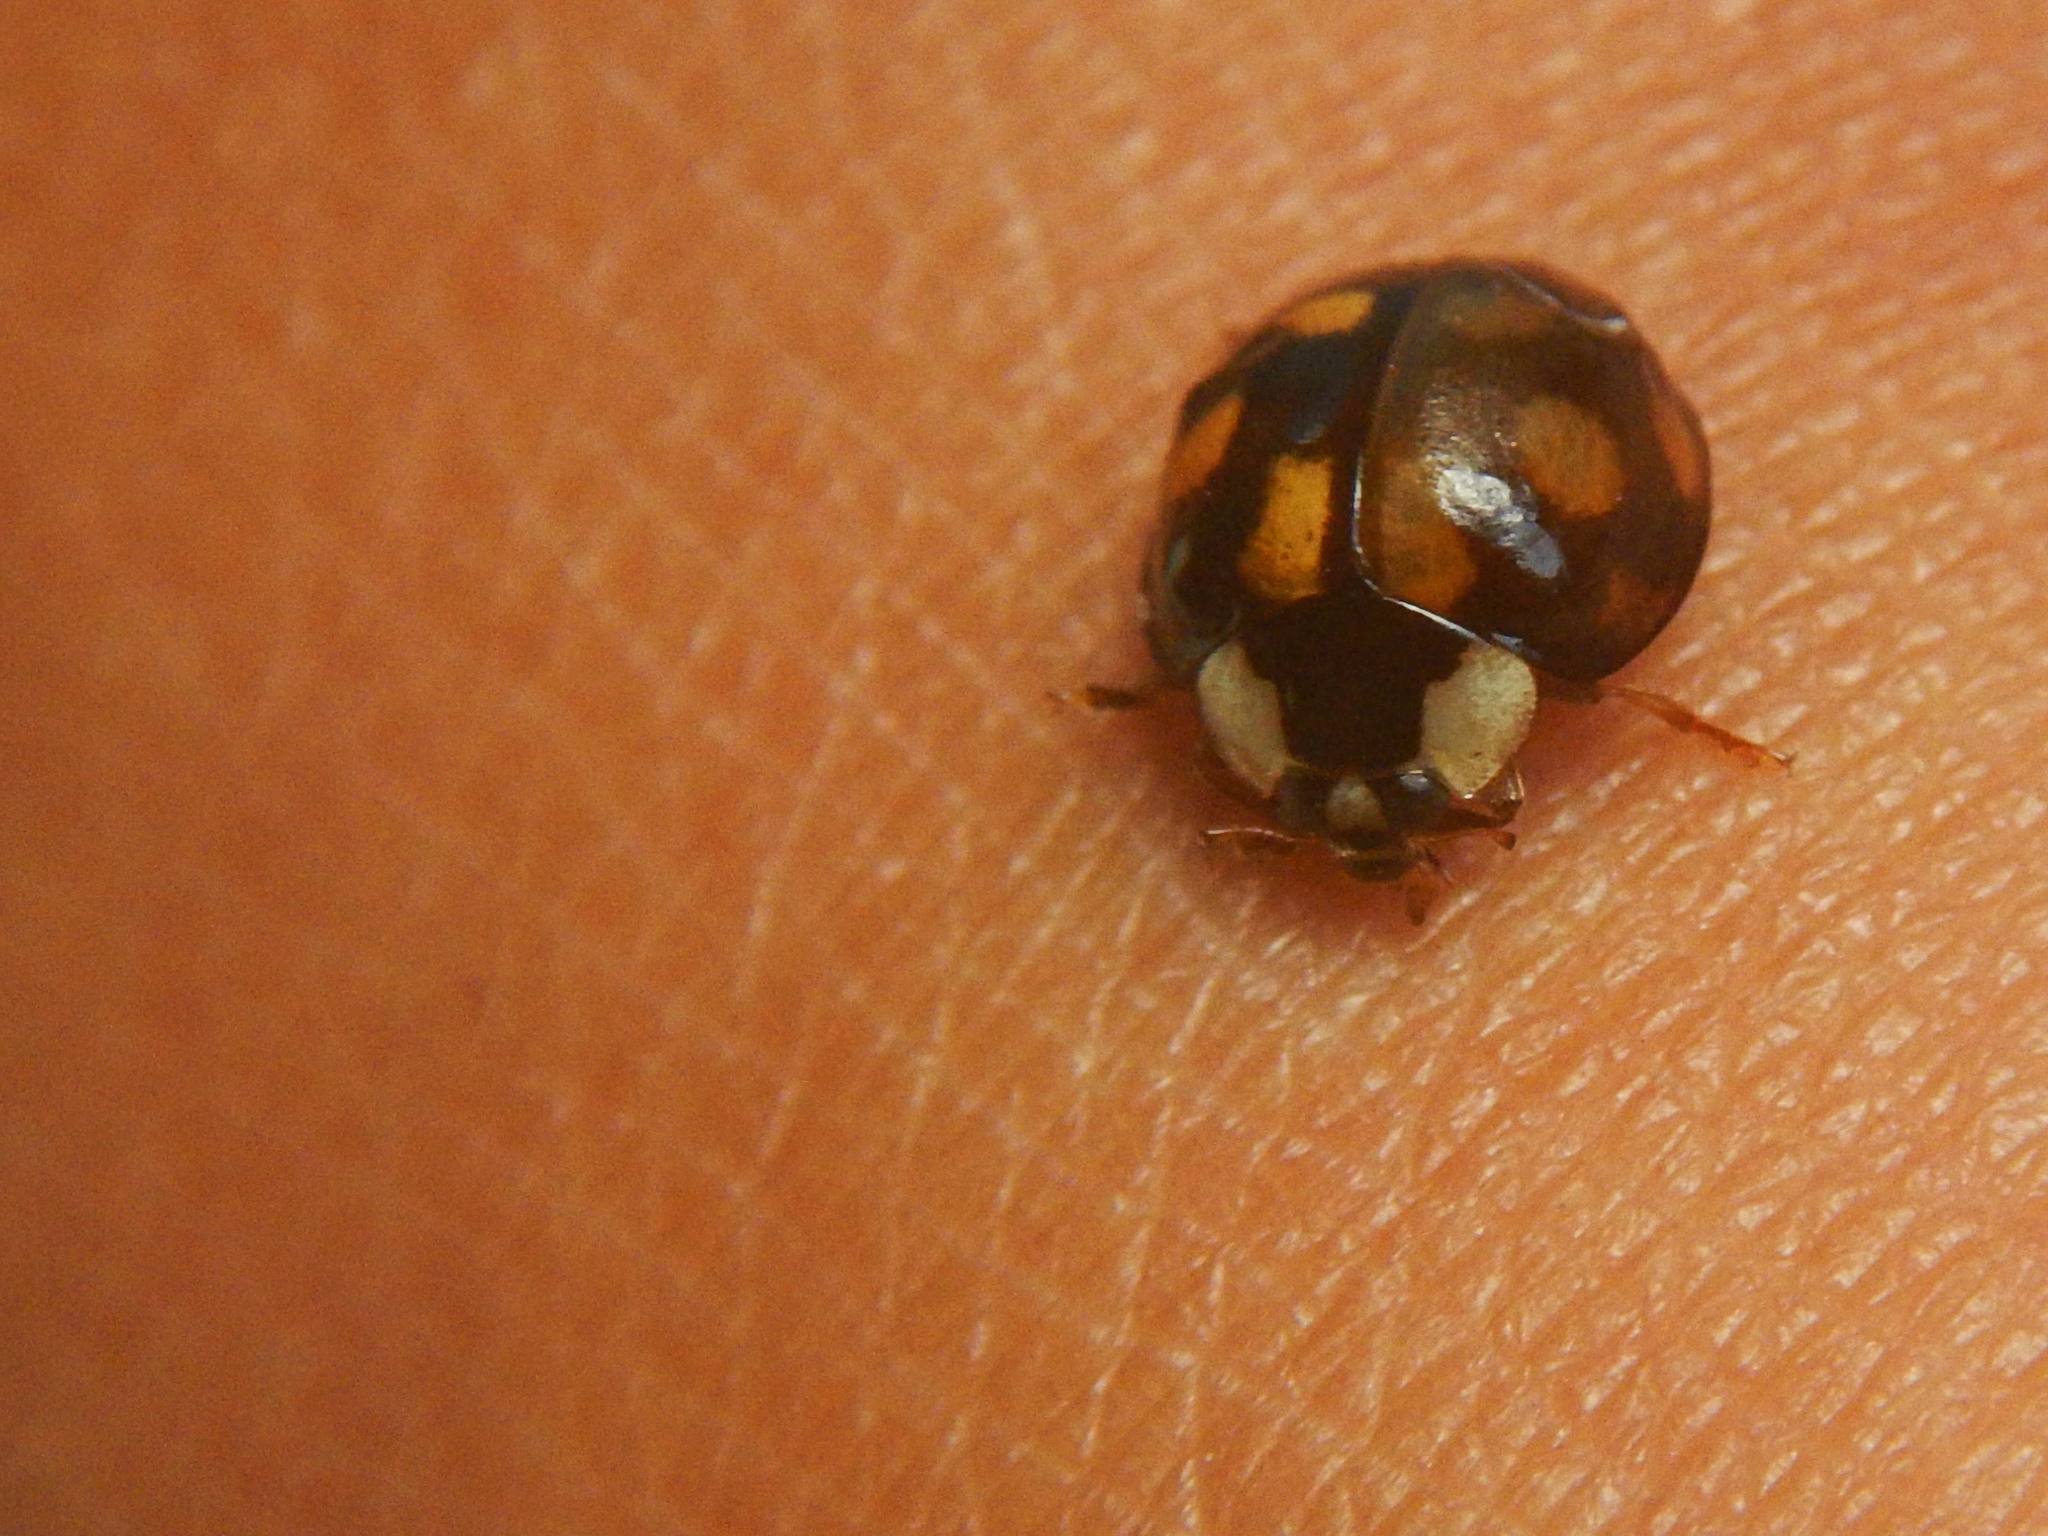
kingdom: Animalia
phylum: Arthropoda
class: Insecta
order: Coleoptera
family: Coccinellidae
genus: Harmonia
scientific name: Harmonia axyridis
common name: Harlequin ladybird
